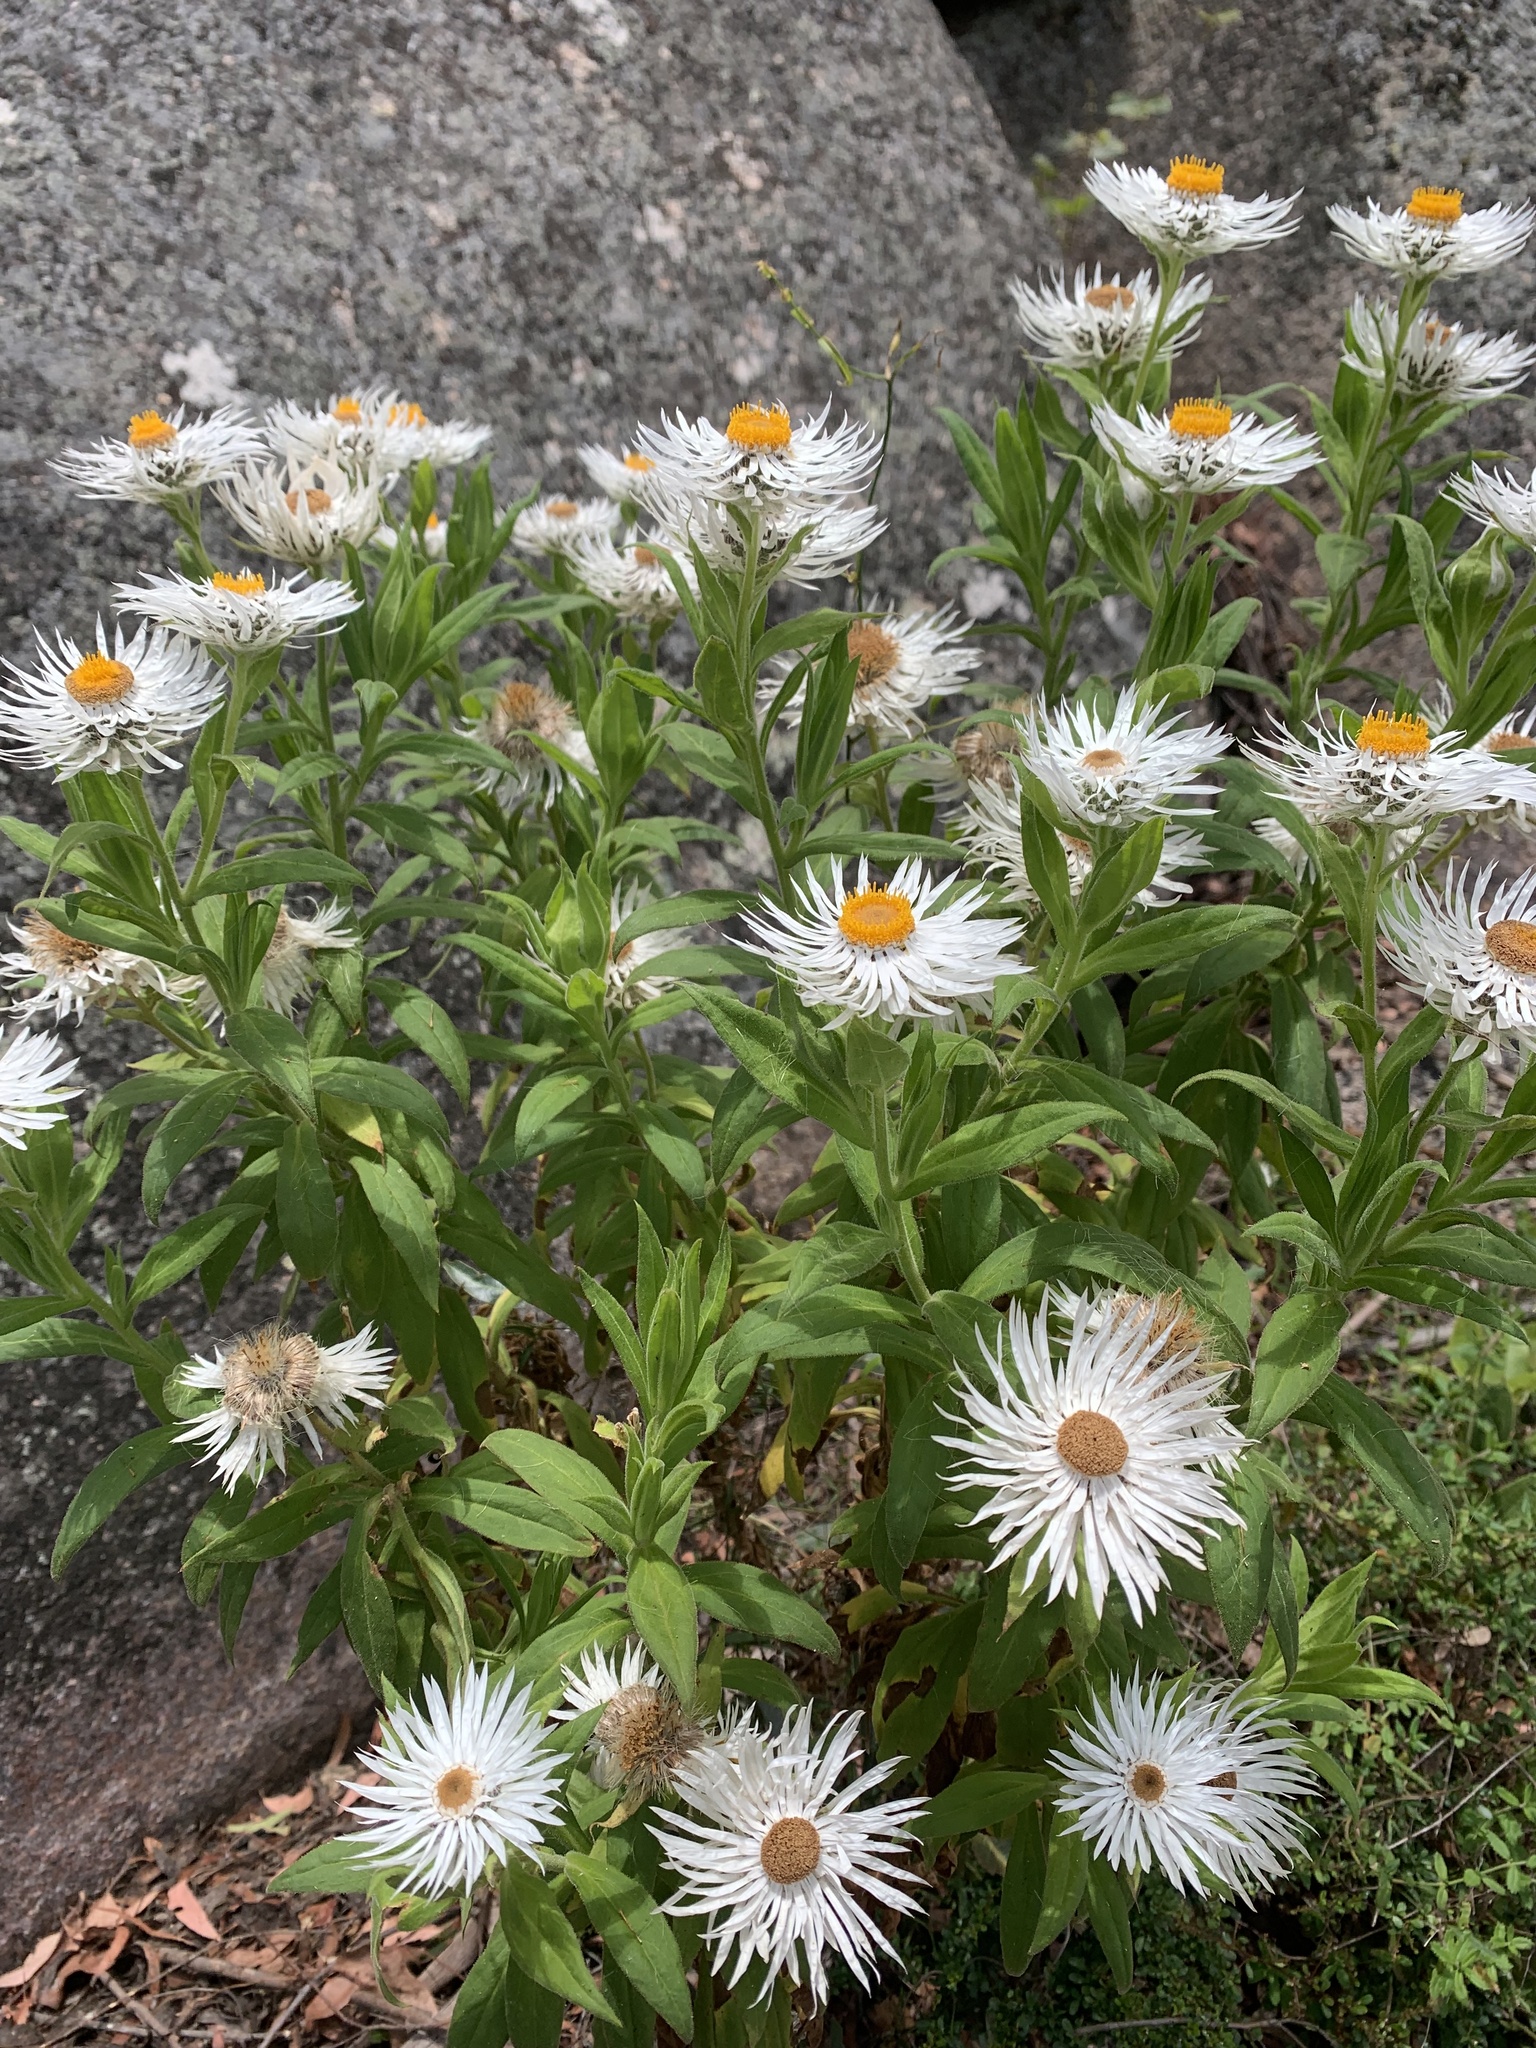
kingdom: Plantae
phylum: Tracheophyta
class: Magnoliopsida
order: Asterales
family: Asteraceae
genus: Leucozoma
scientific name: Leucozoma boormanii
